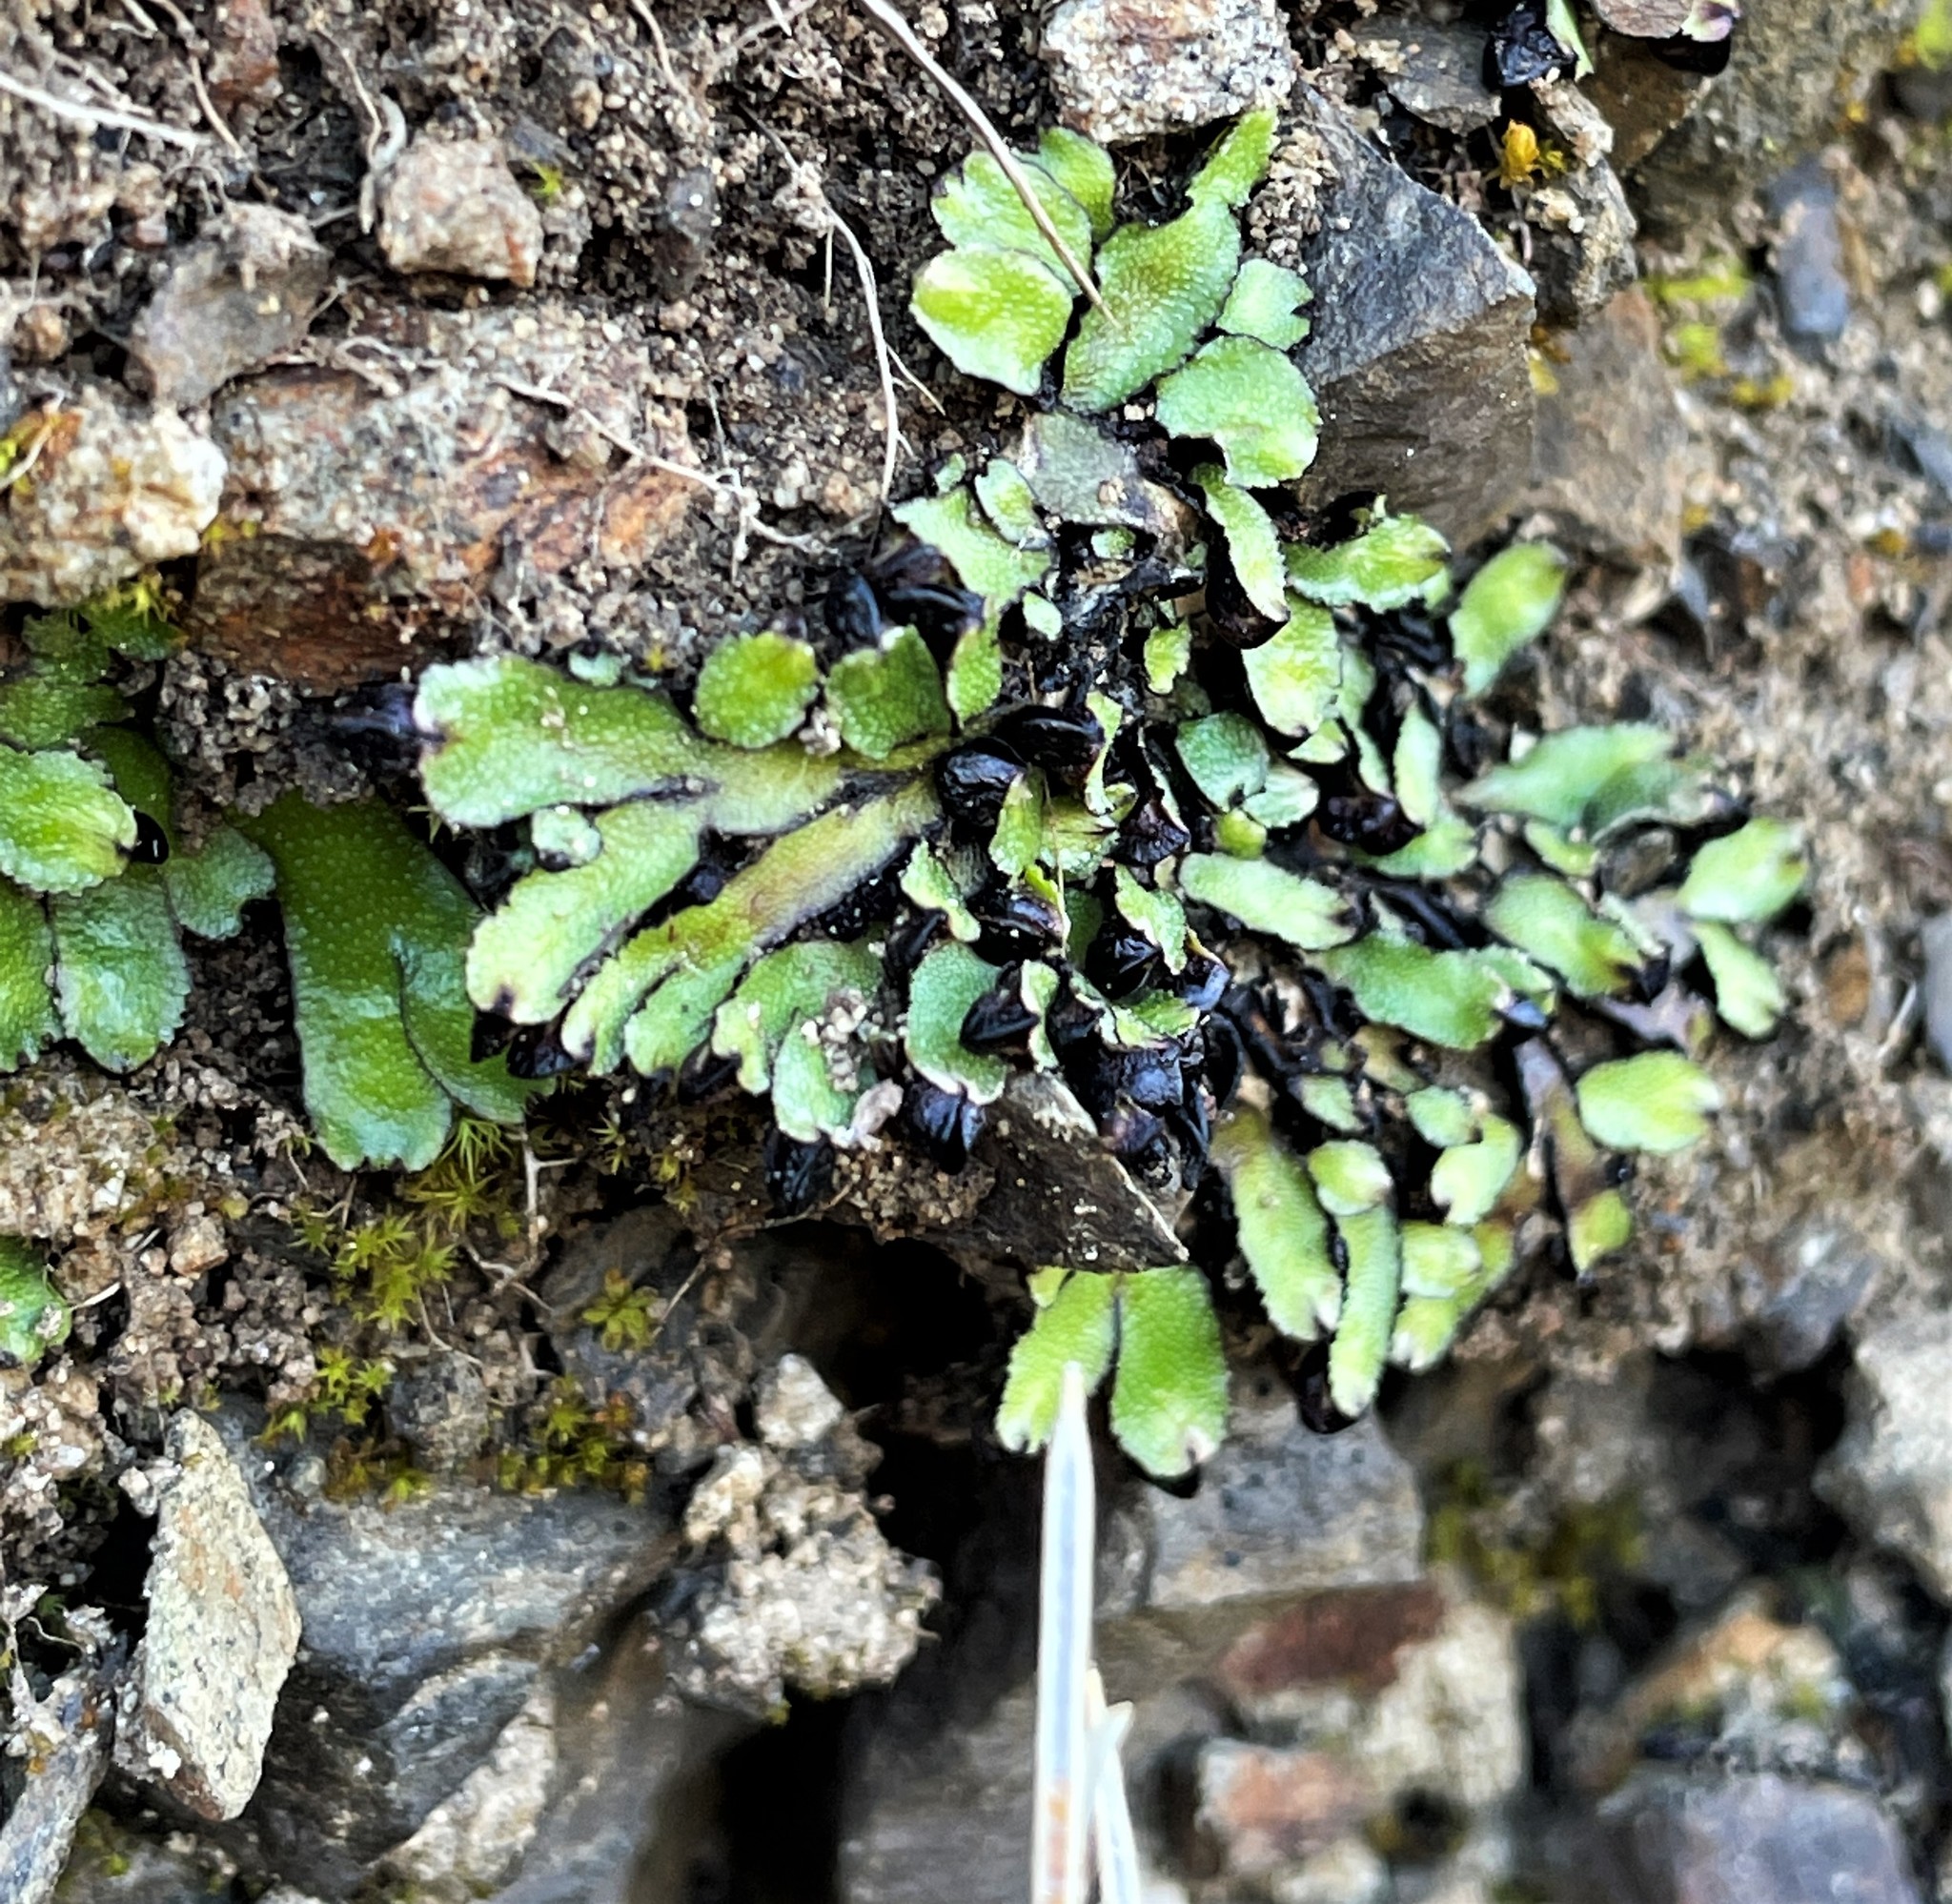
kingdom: Plantae
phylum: Marchantiophyta
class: Marchantiopsida
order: Marchantiales
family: Targioniaceae
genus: Targionia
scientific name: Targionia hypophylla
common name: Orobus-seed liverwort
